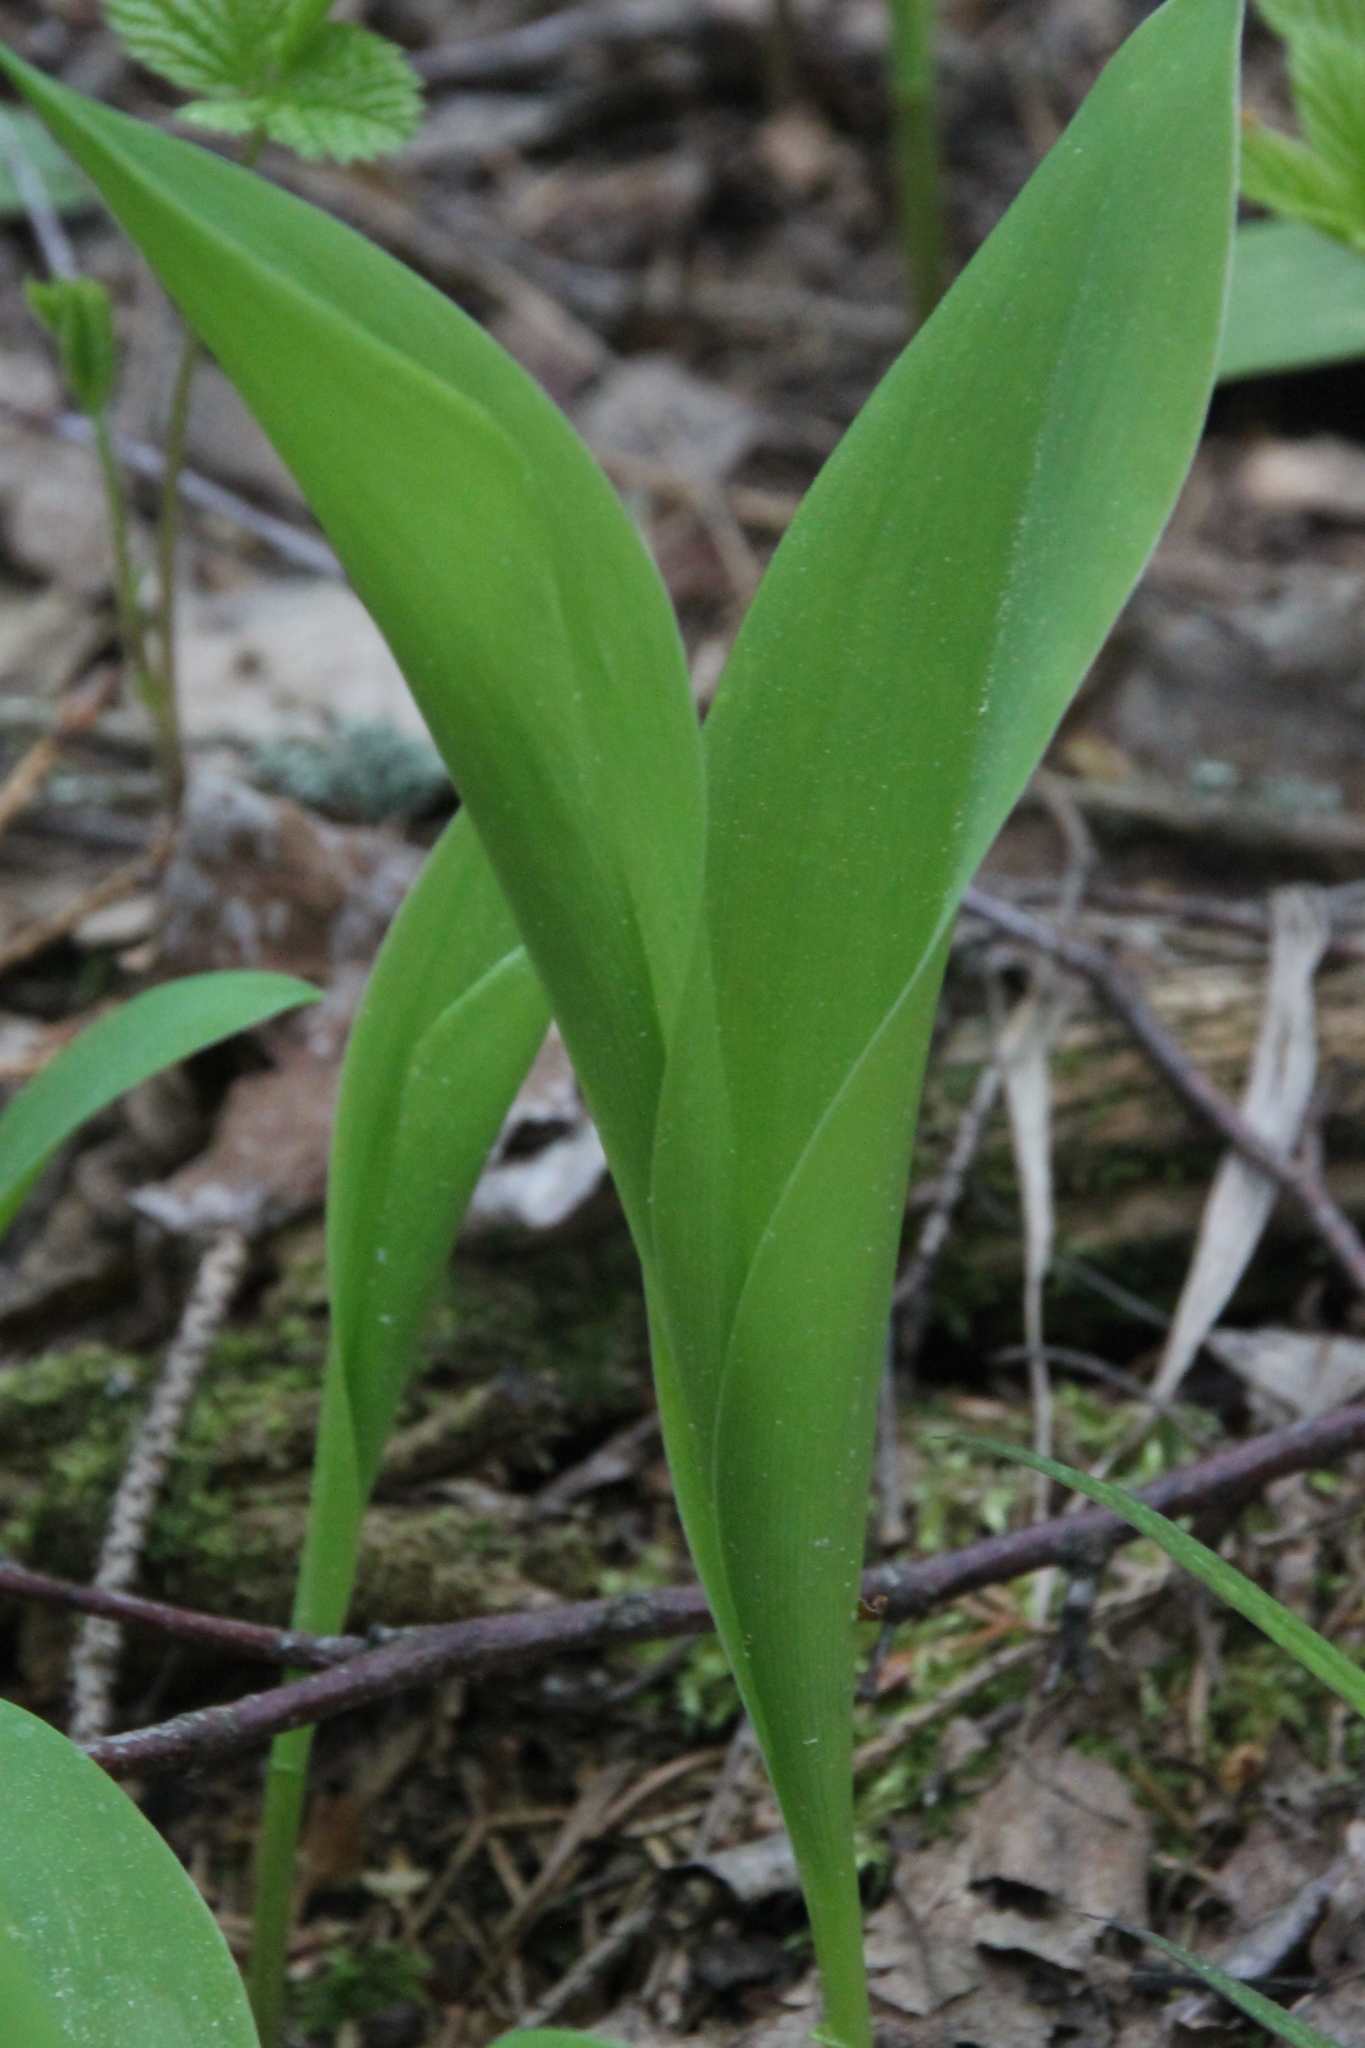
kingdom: Plantae
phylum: Tracheophyta
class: Liliopsida
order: Asparagales
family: Asparagaceae
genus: Convallaria
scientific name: Convallaria majalis
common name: Lily-of-the-valley
